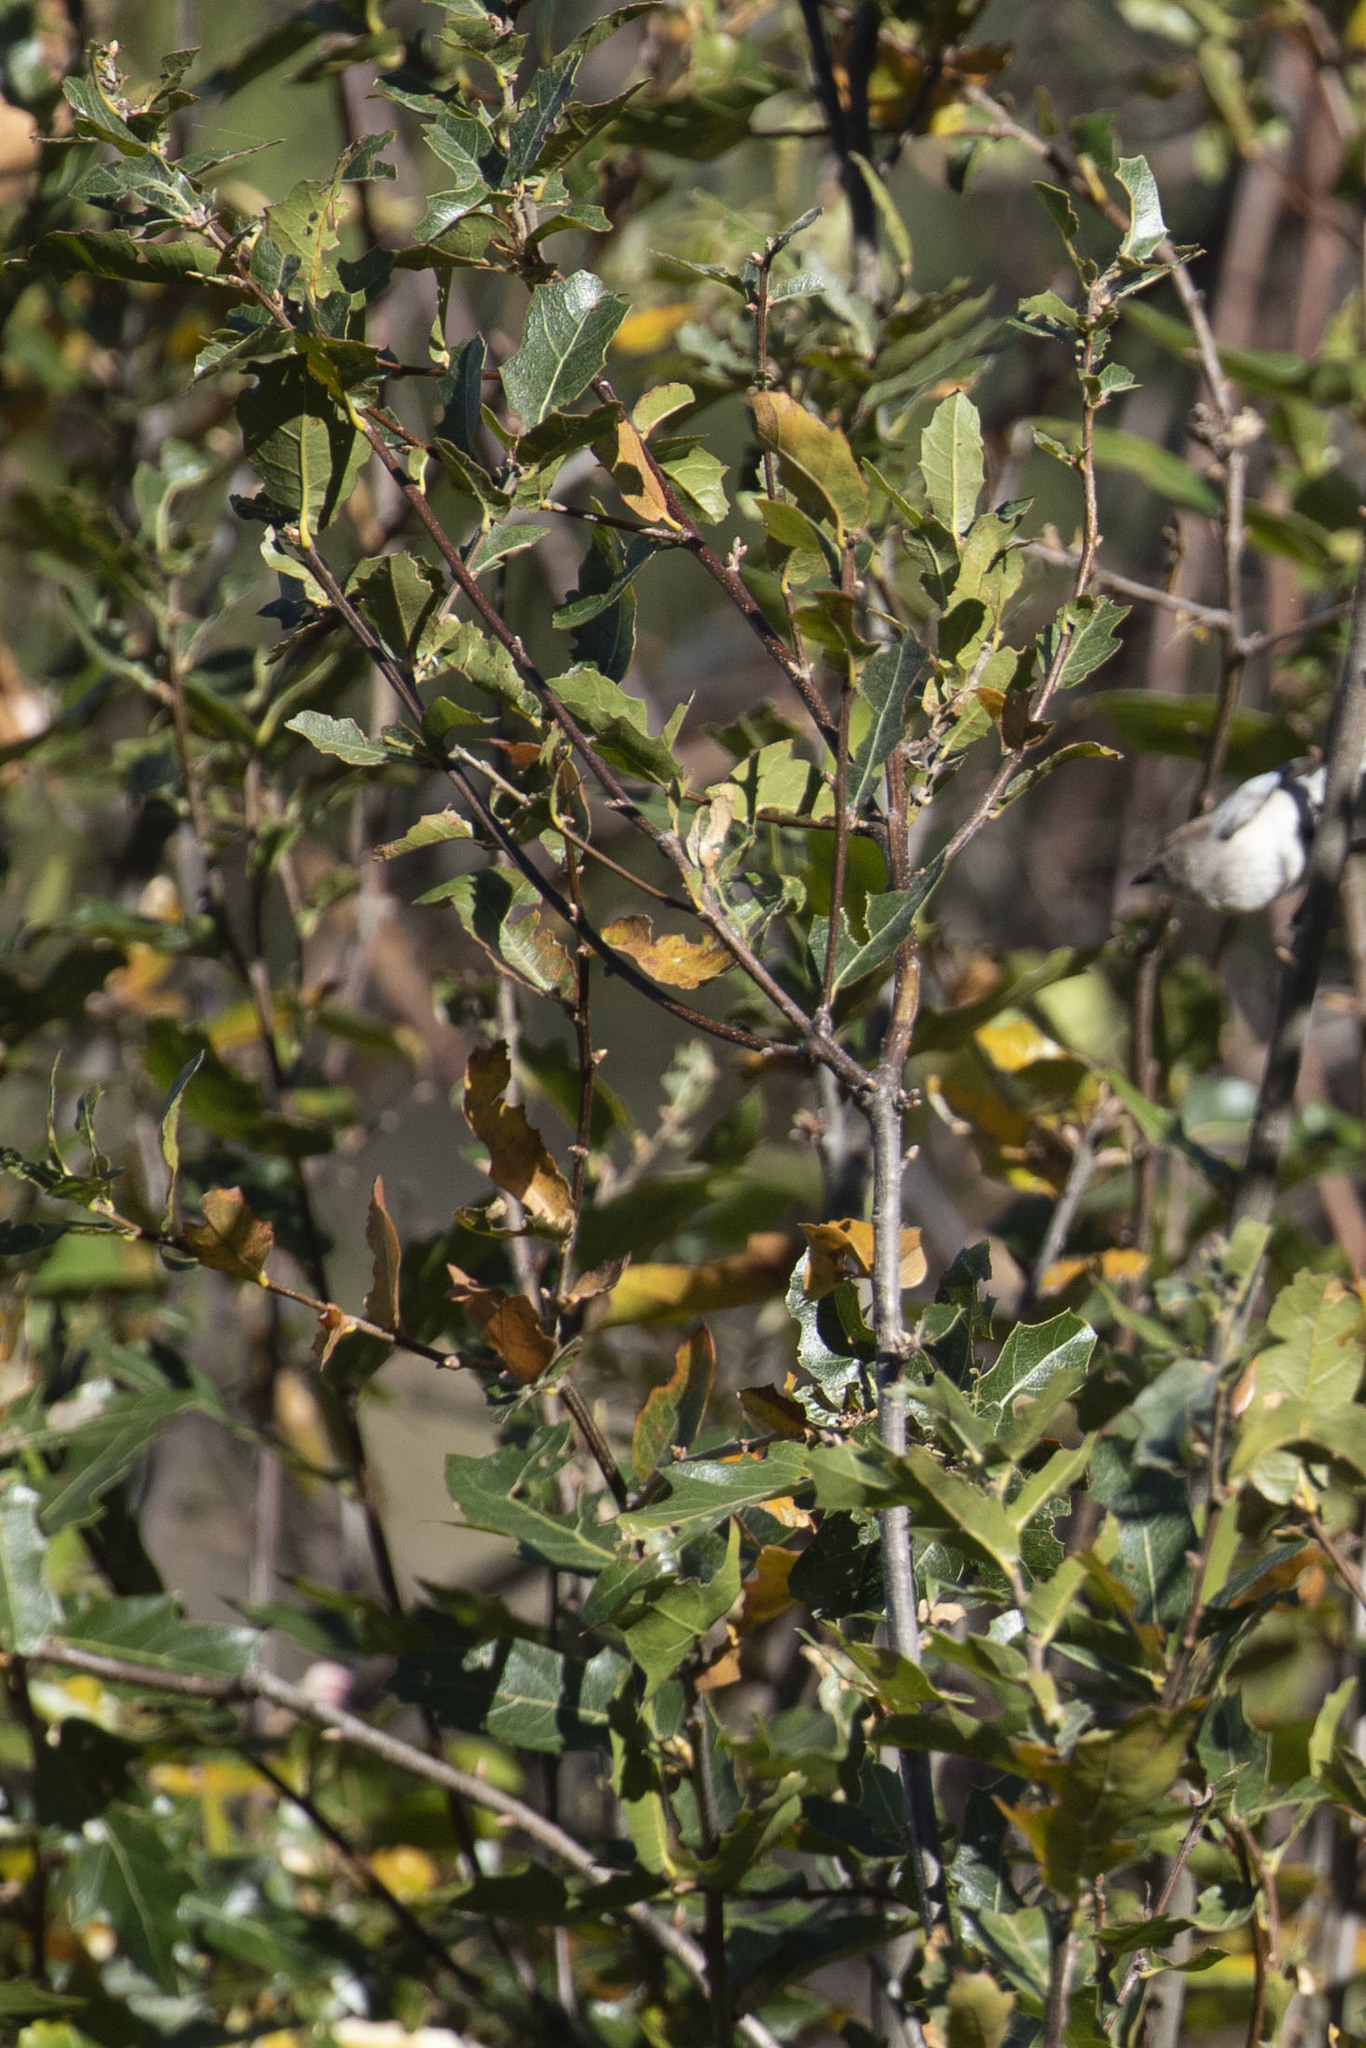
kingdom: Plantae
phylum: Tracheophyta
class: Magnoliopsida
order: Fagales
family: Fagaceae
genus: Quercus
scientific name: Quercus devia
